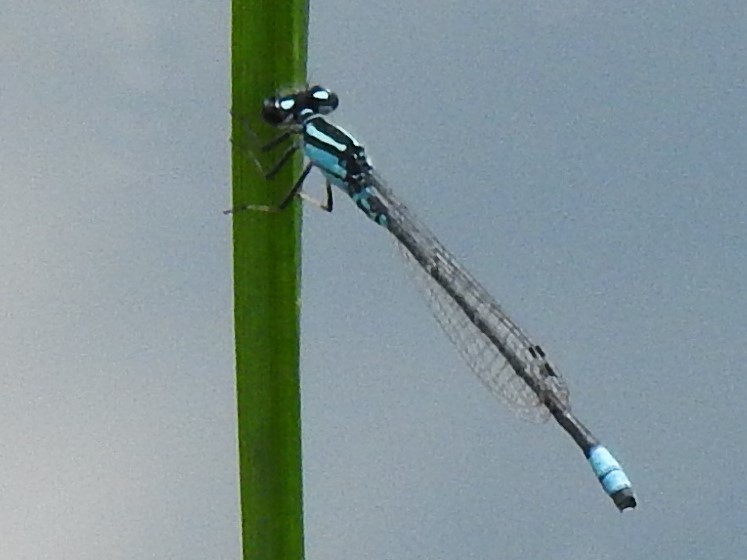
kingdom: Animalia
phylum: Arthropoda
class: Insecta
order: Odonata
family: Coenagrionidae
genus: Enallagma
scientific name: Enallagma geminatum
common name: Skimming bluet
